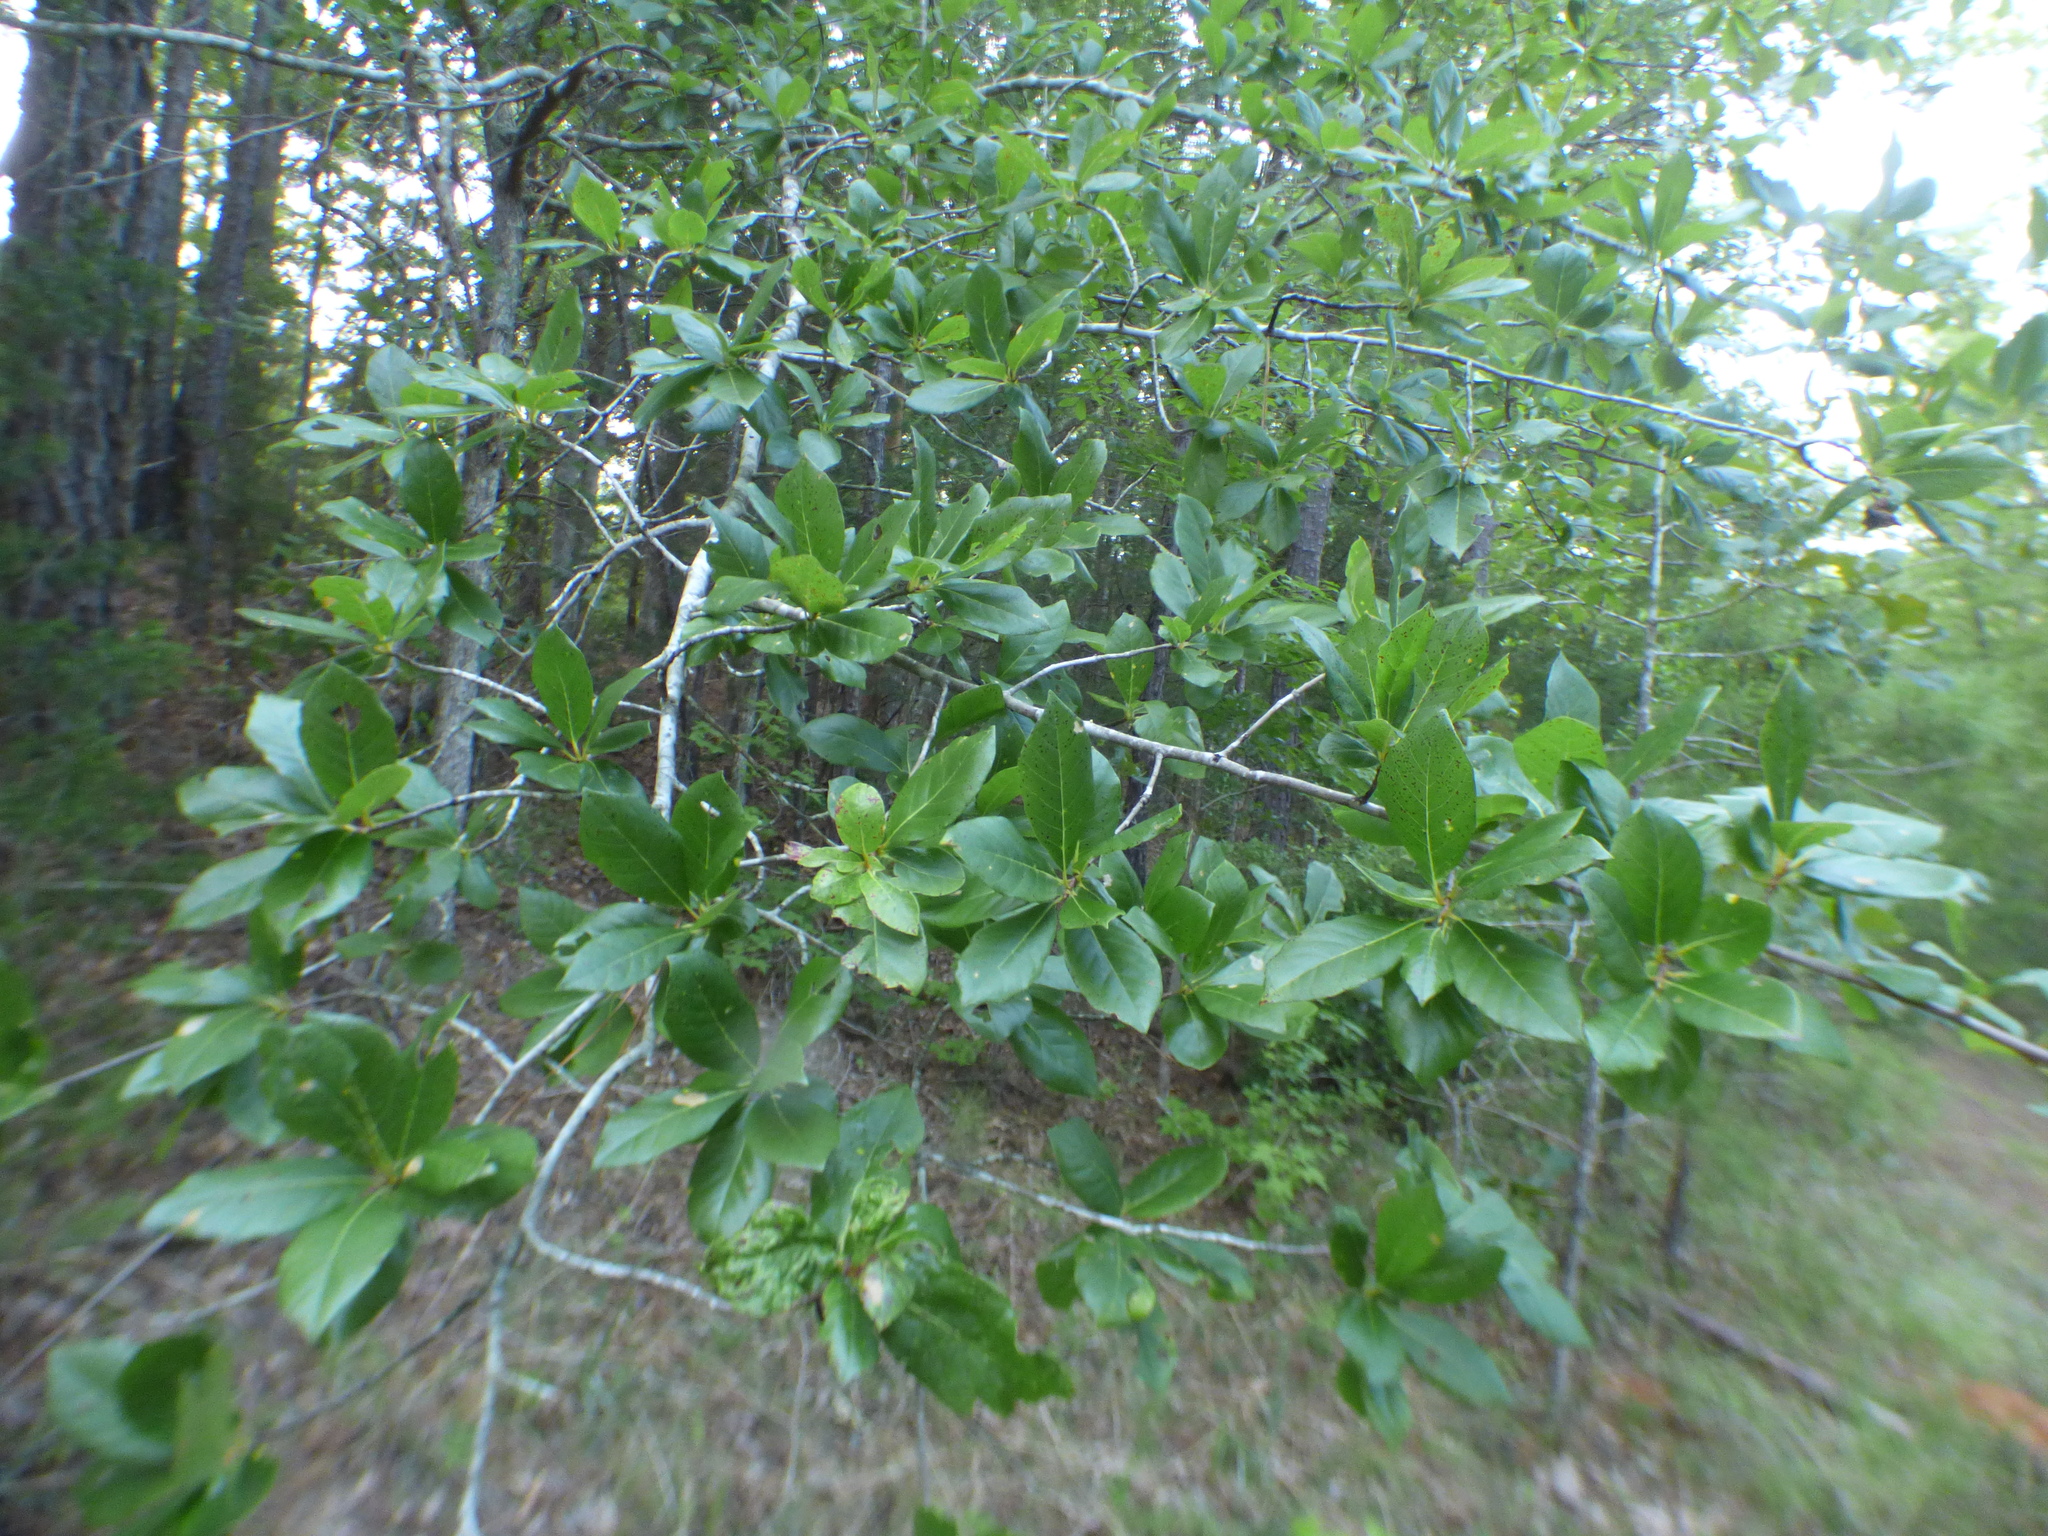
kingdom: Plantae
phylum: Tracheophyta
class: Magnoliopsida
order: Cornales
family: Nyssaceae
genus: Nyssa
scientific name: Nyssa sylvatica
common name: Black tupelo
